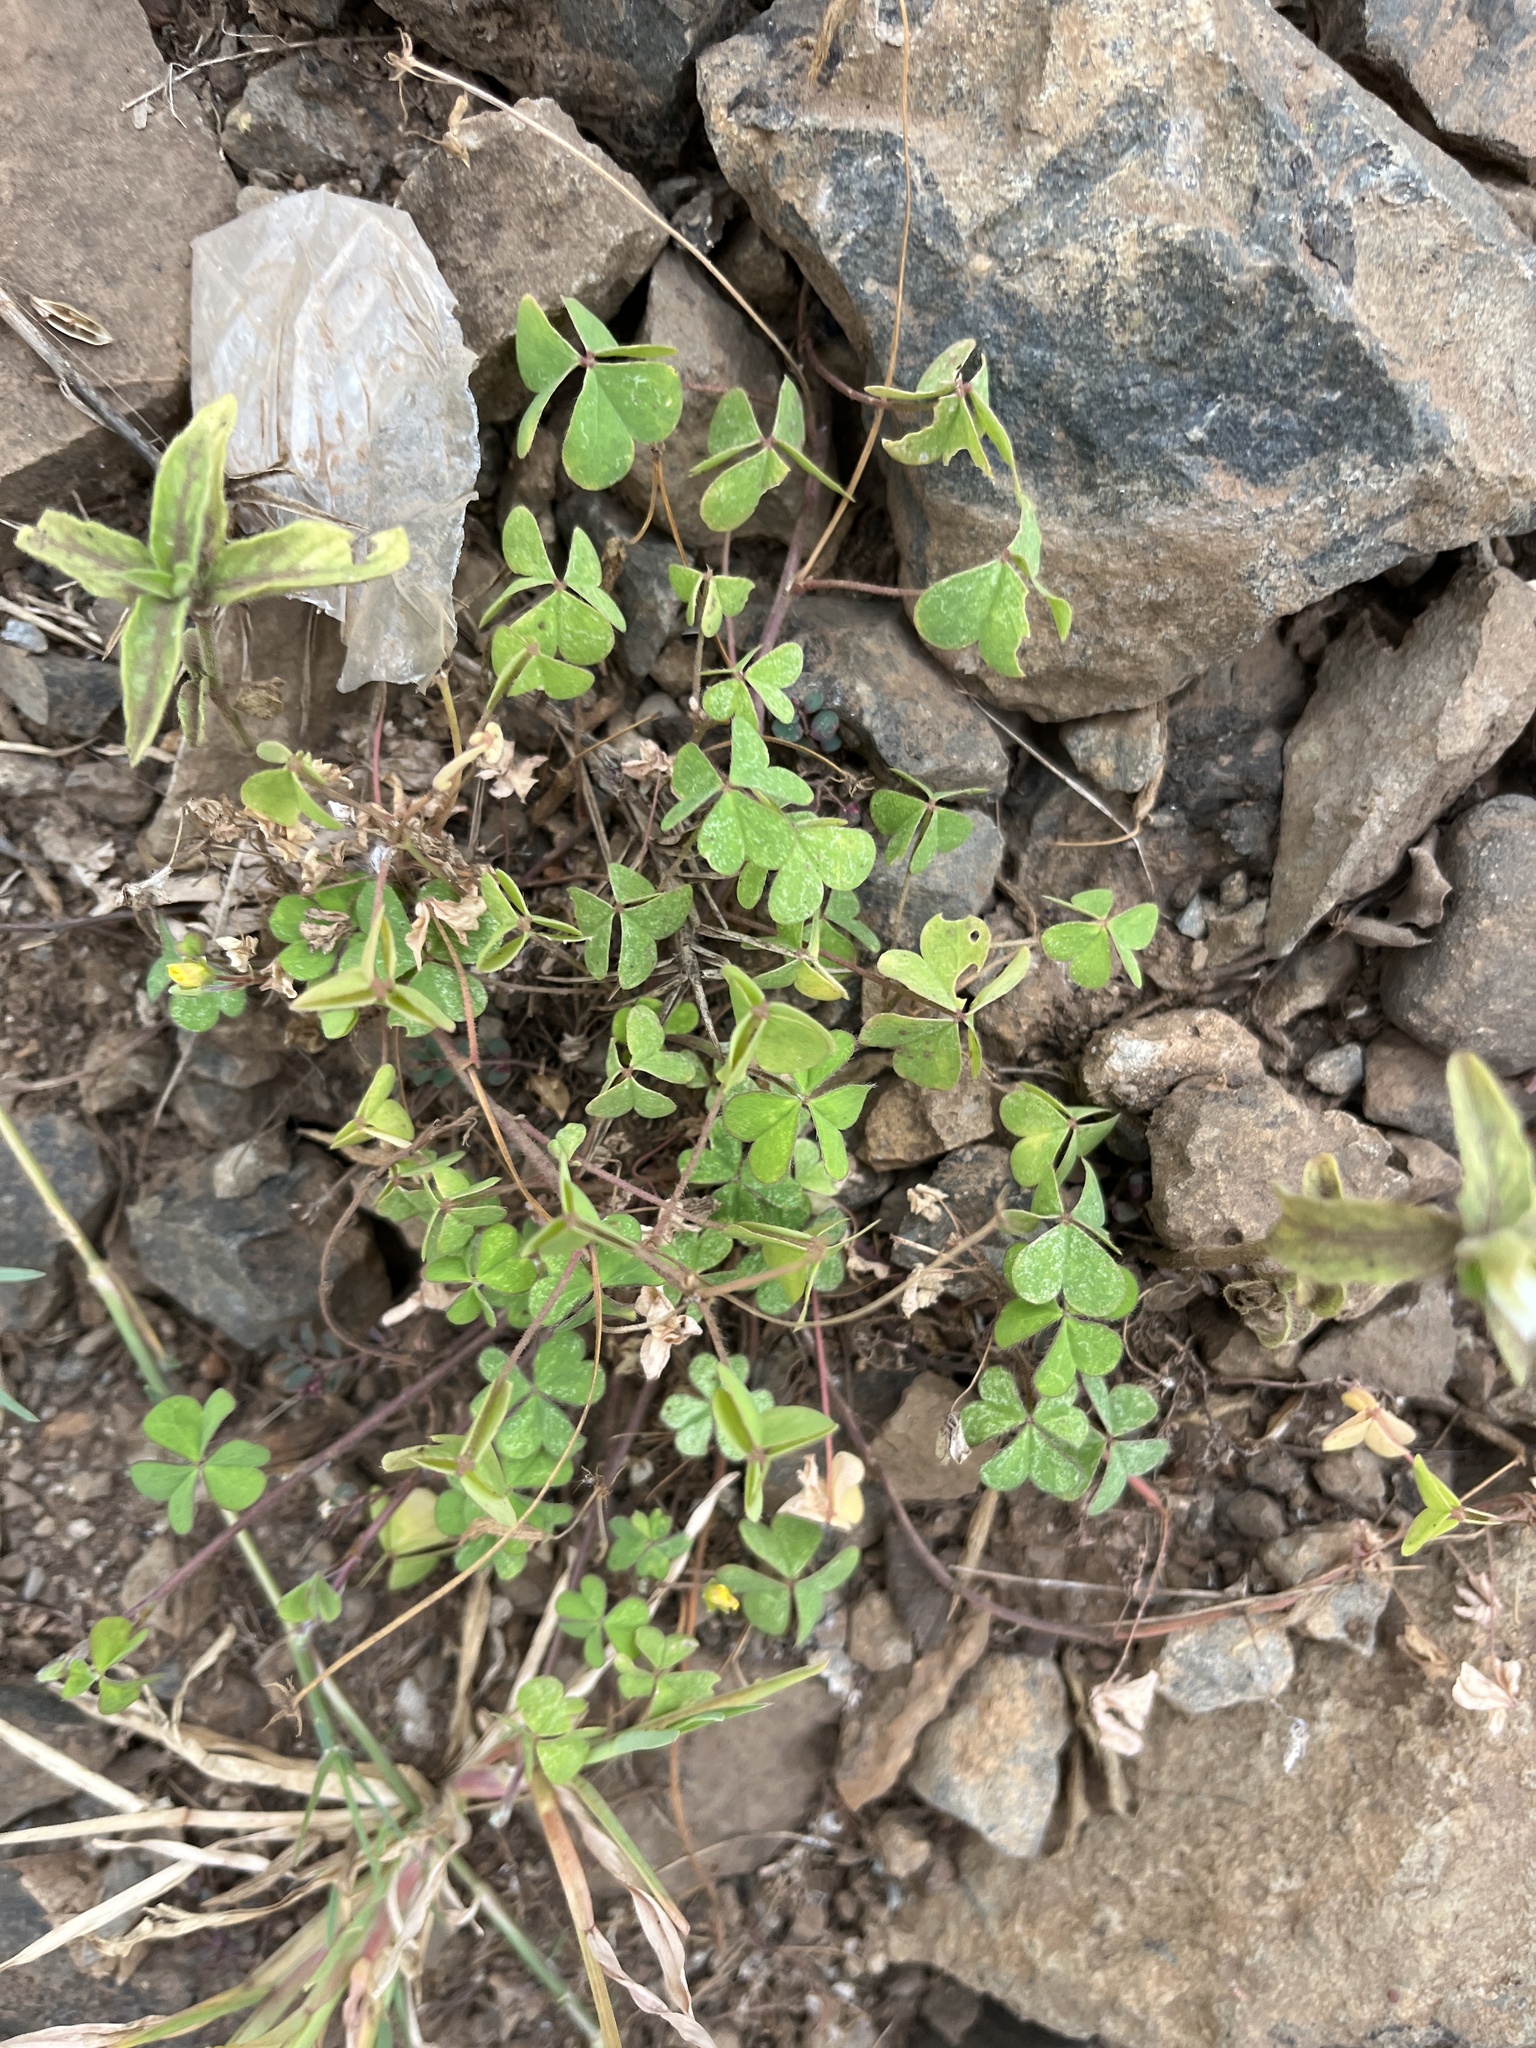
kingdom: Plantae
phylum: Tracheophyta
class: Magnoliopsida
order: Oxalidales
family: Oxalidaceae
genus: Oxalis
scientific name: Oxalis corniculata
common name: Procumbent yellow-sorrel
